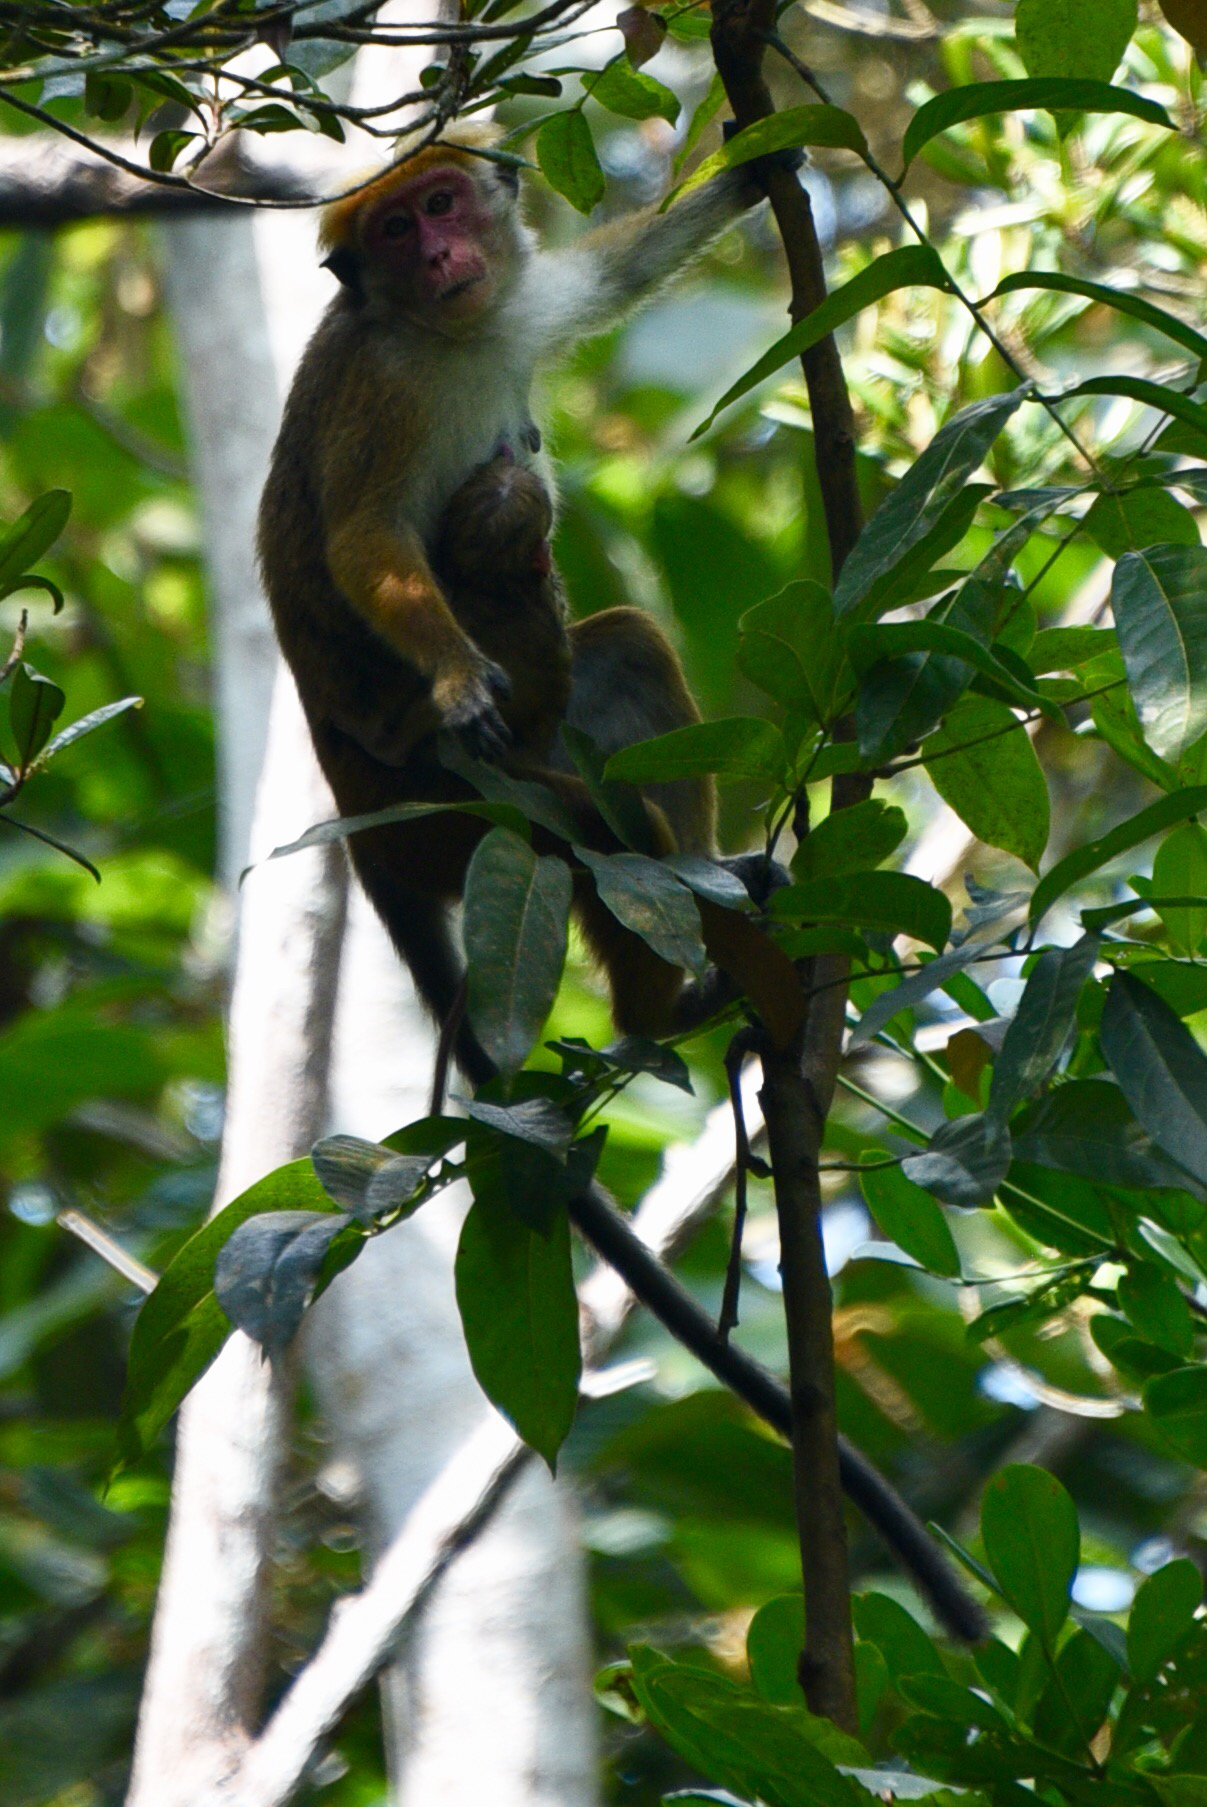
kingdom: Animalia
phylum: Chordata
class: Mammalia
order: Primates
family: Cercopithecidae
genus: Macaca
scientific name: Macaca sinica
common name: Toque macaque
